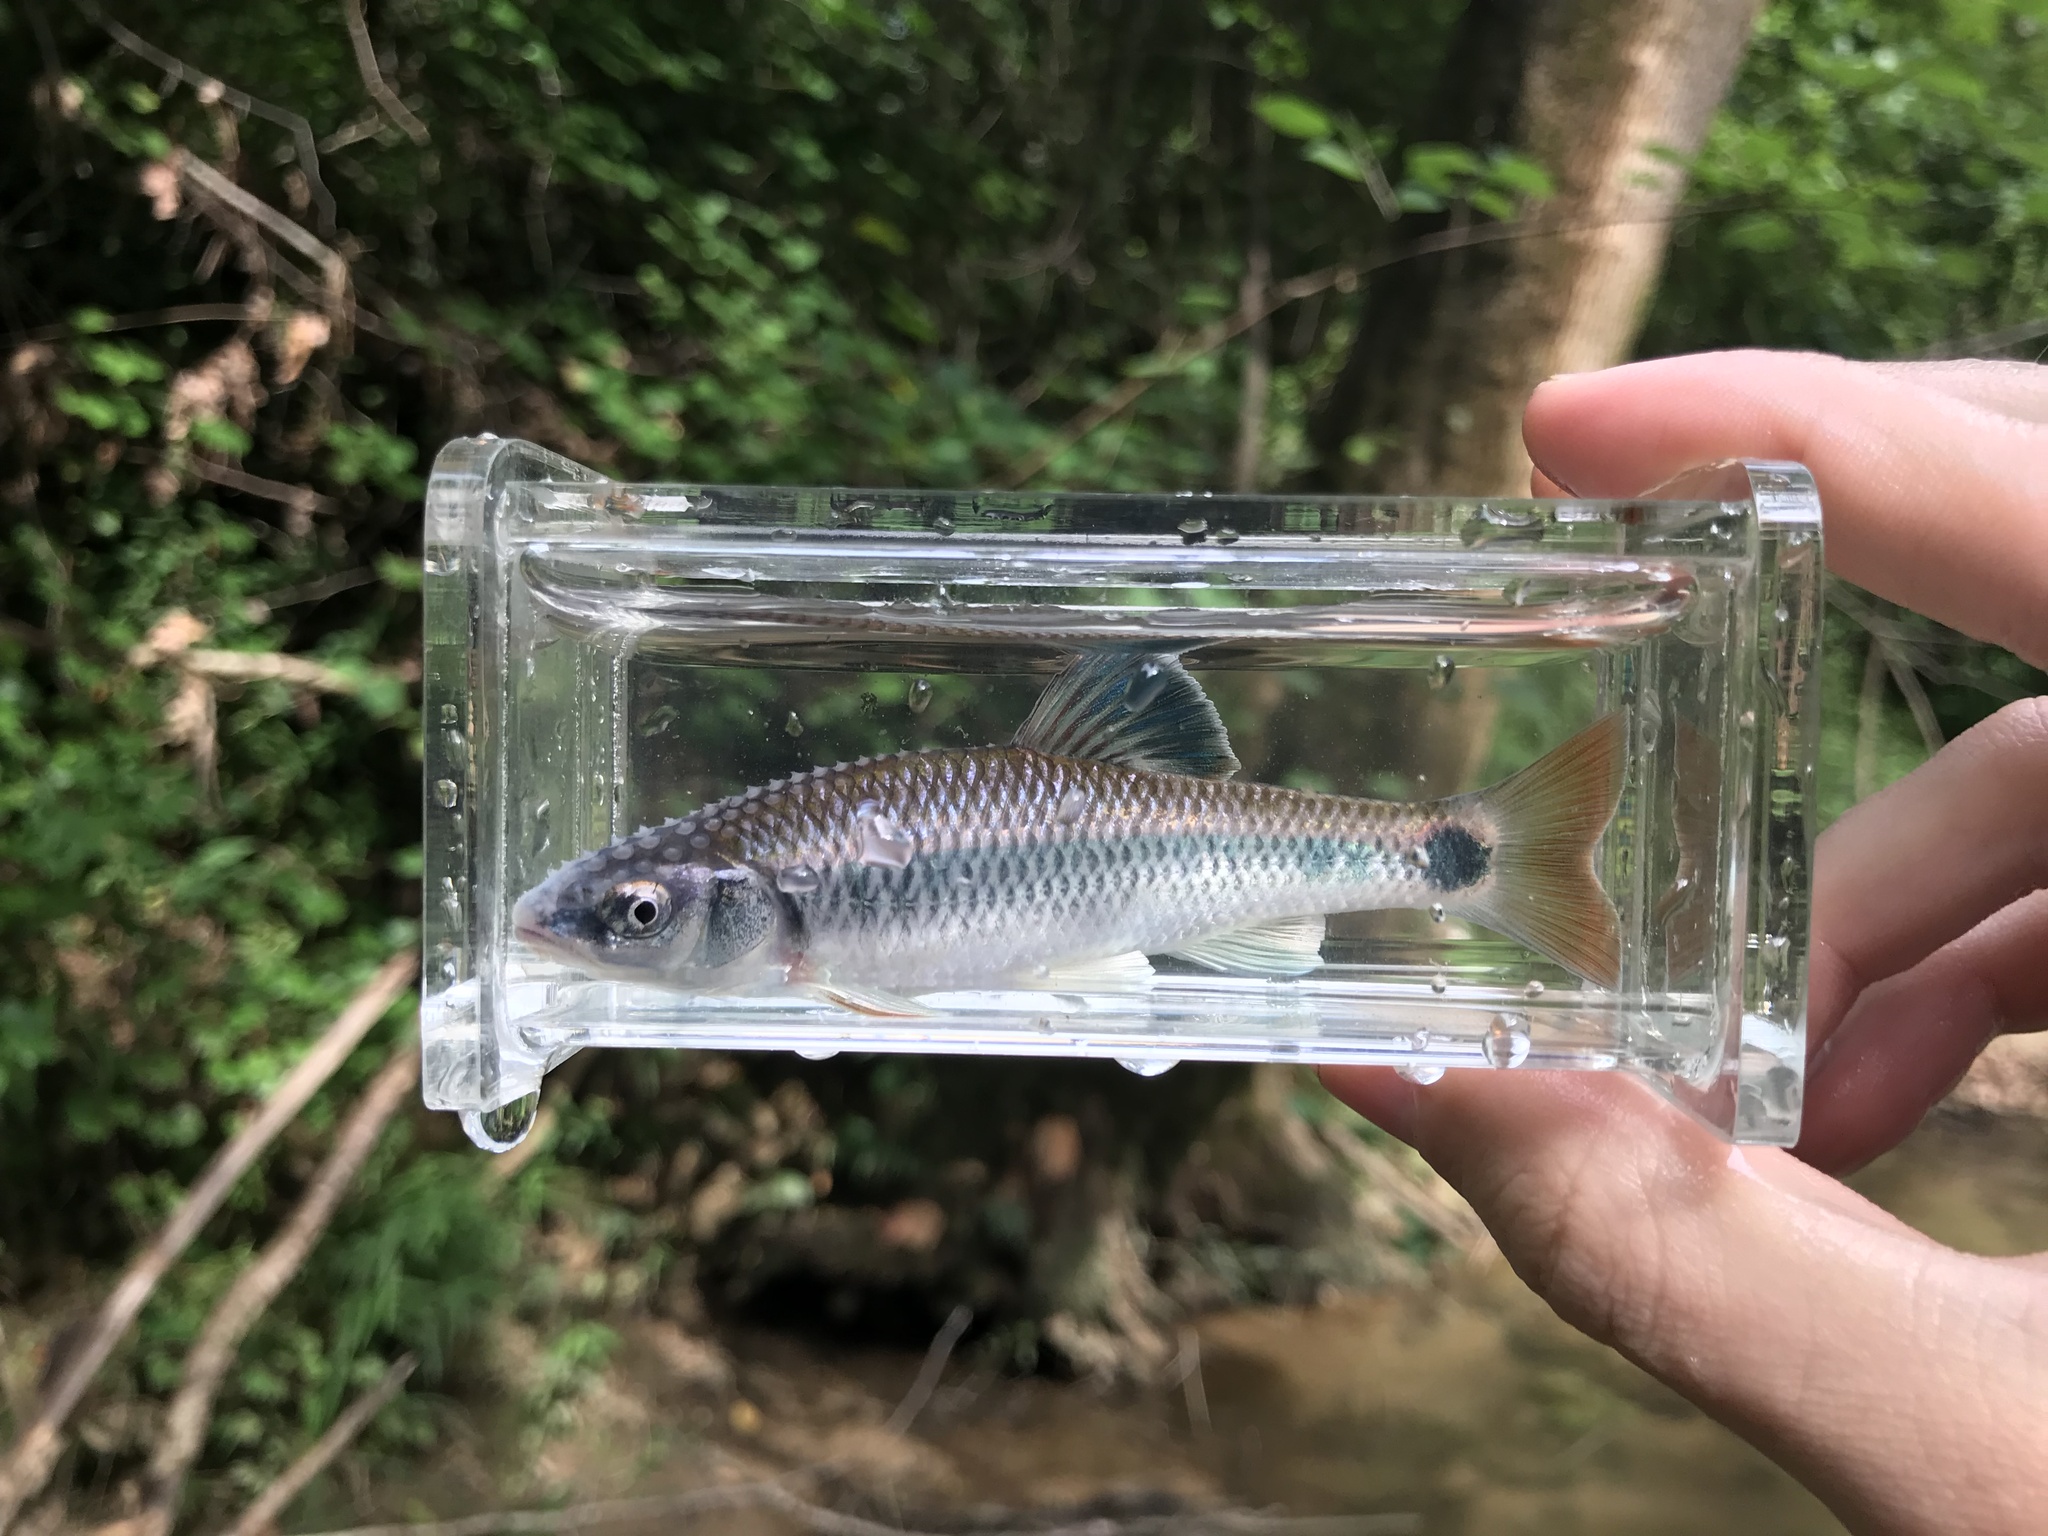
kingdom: Animalia
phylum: Chordata
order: Cypriniformes
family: Cyprinidae
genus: Cyprinella
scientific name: Cyprinella callistia
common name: Alabama shiner
